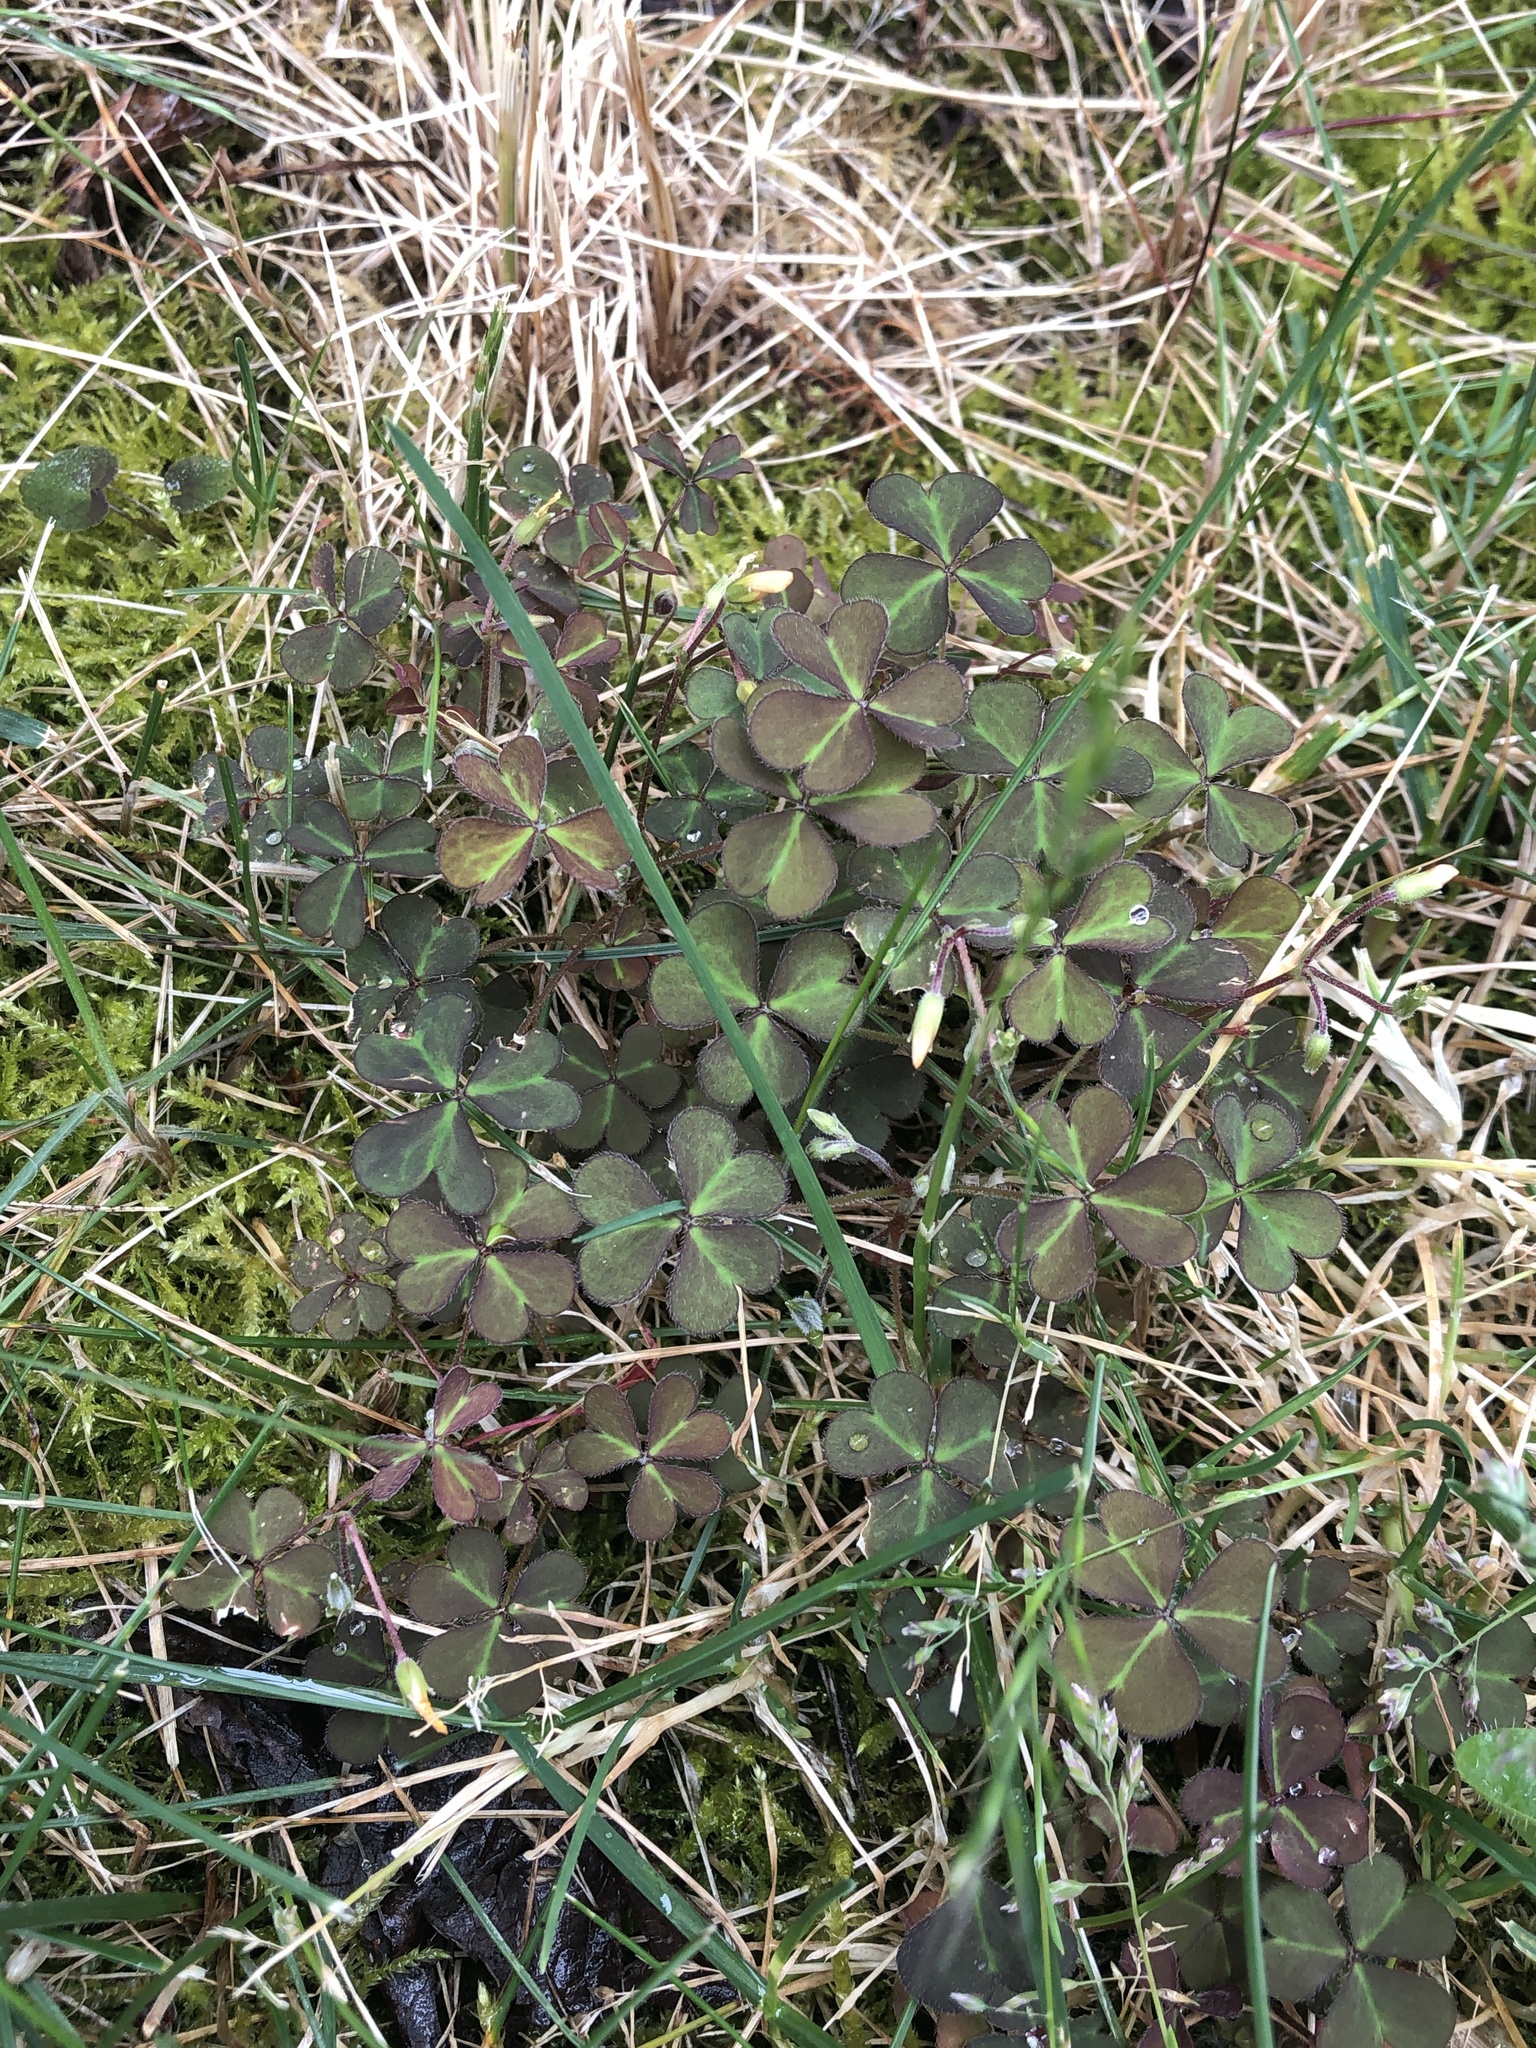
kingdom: Plantae
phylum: Tracheophyta
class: Magnoliopsida
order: Oxalidales
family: Oxalidaceae
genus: Oxalis
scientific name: Oxalis corniculata
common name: Procumbent yellow-sorrel
